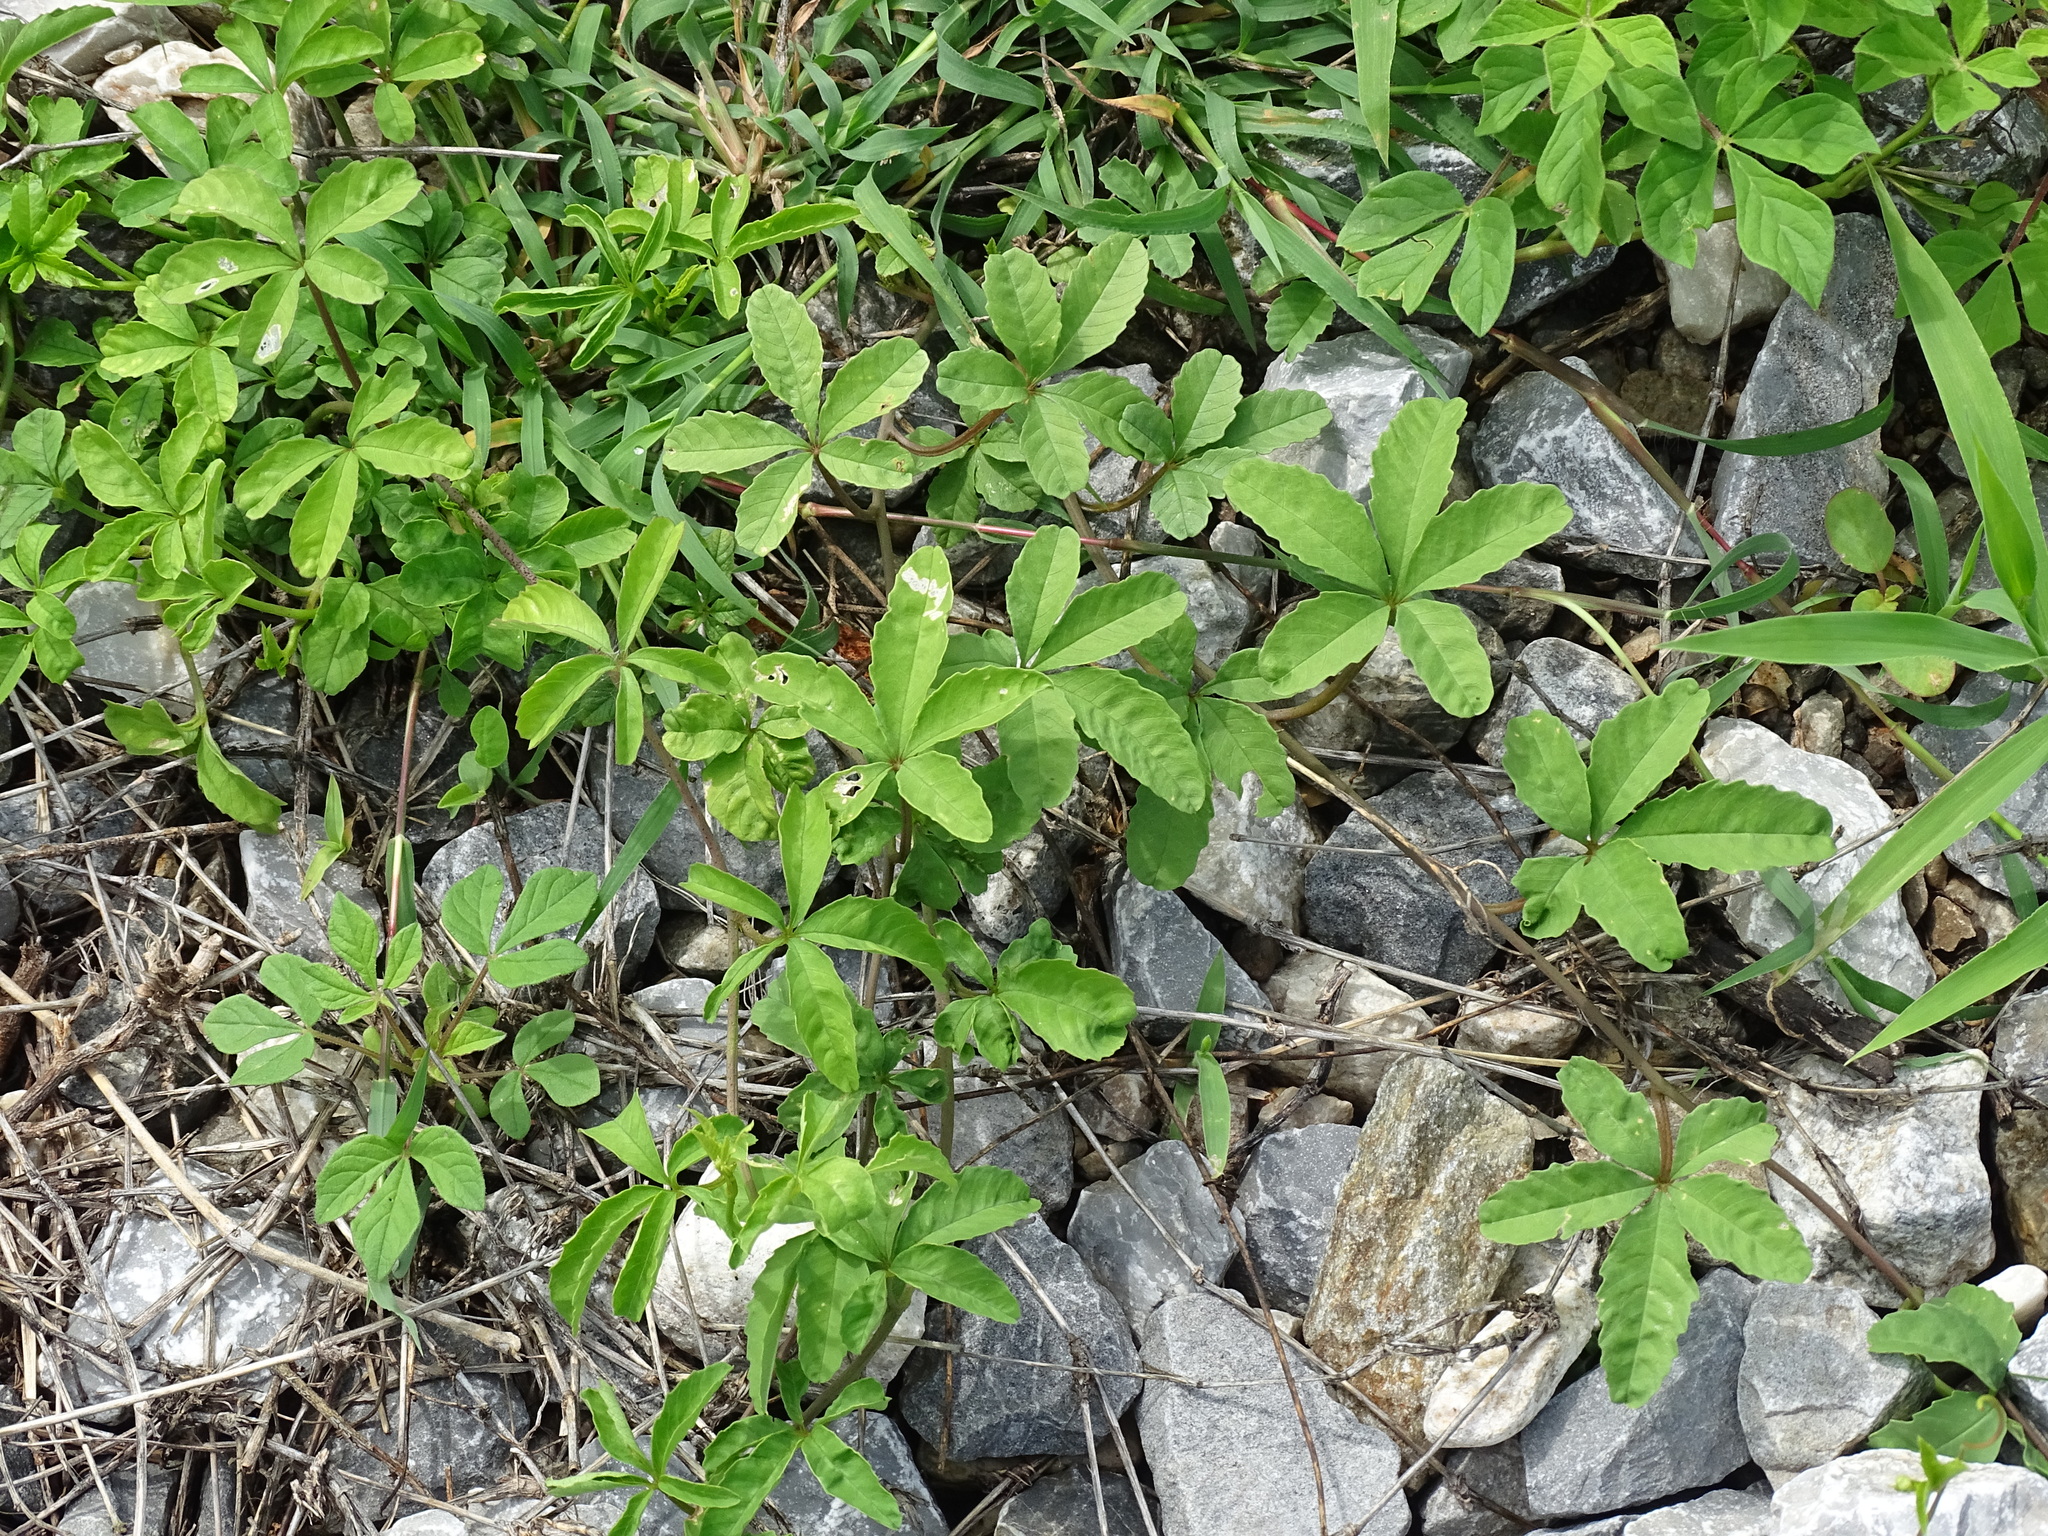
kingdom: Plantae
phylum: Tracheophyta
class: Magnoliopsida
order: Solanales
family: Convolvulaceae
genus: Distimake
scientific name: Distimake quinquefolius
